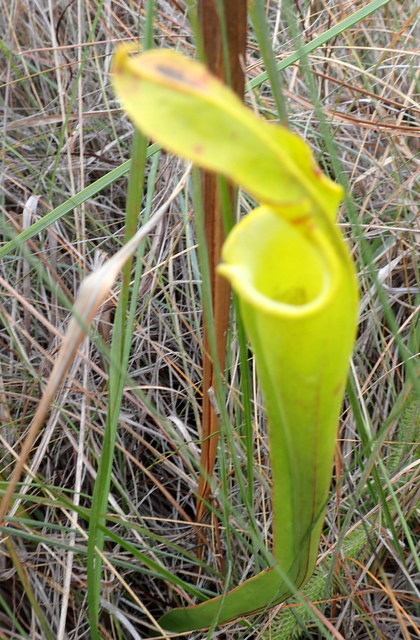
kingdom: Plantae
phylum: Tracheophyta
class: Magnoliopsida
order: Ericales
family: Sarraceniaceae
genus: Sarracenia
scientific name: Sarracenia flava
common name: Trumpets
